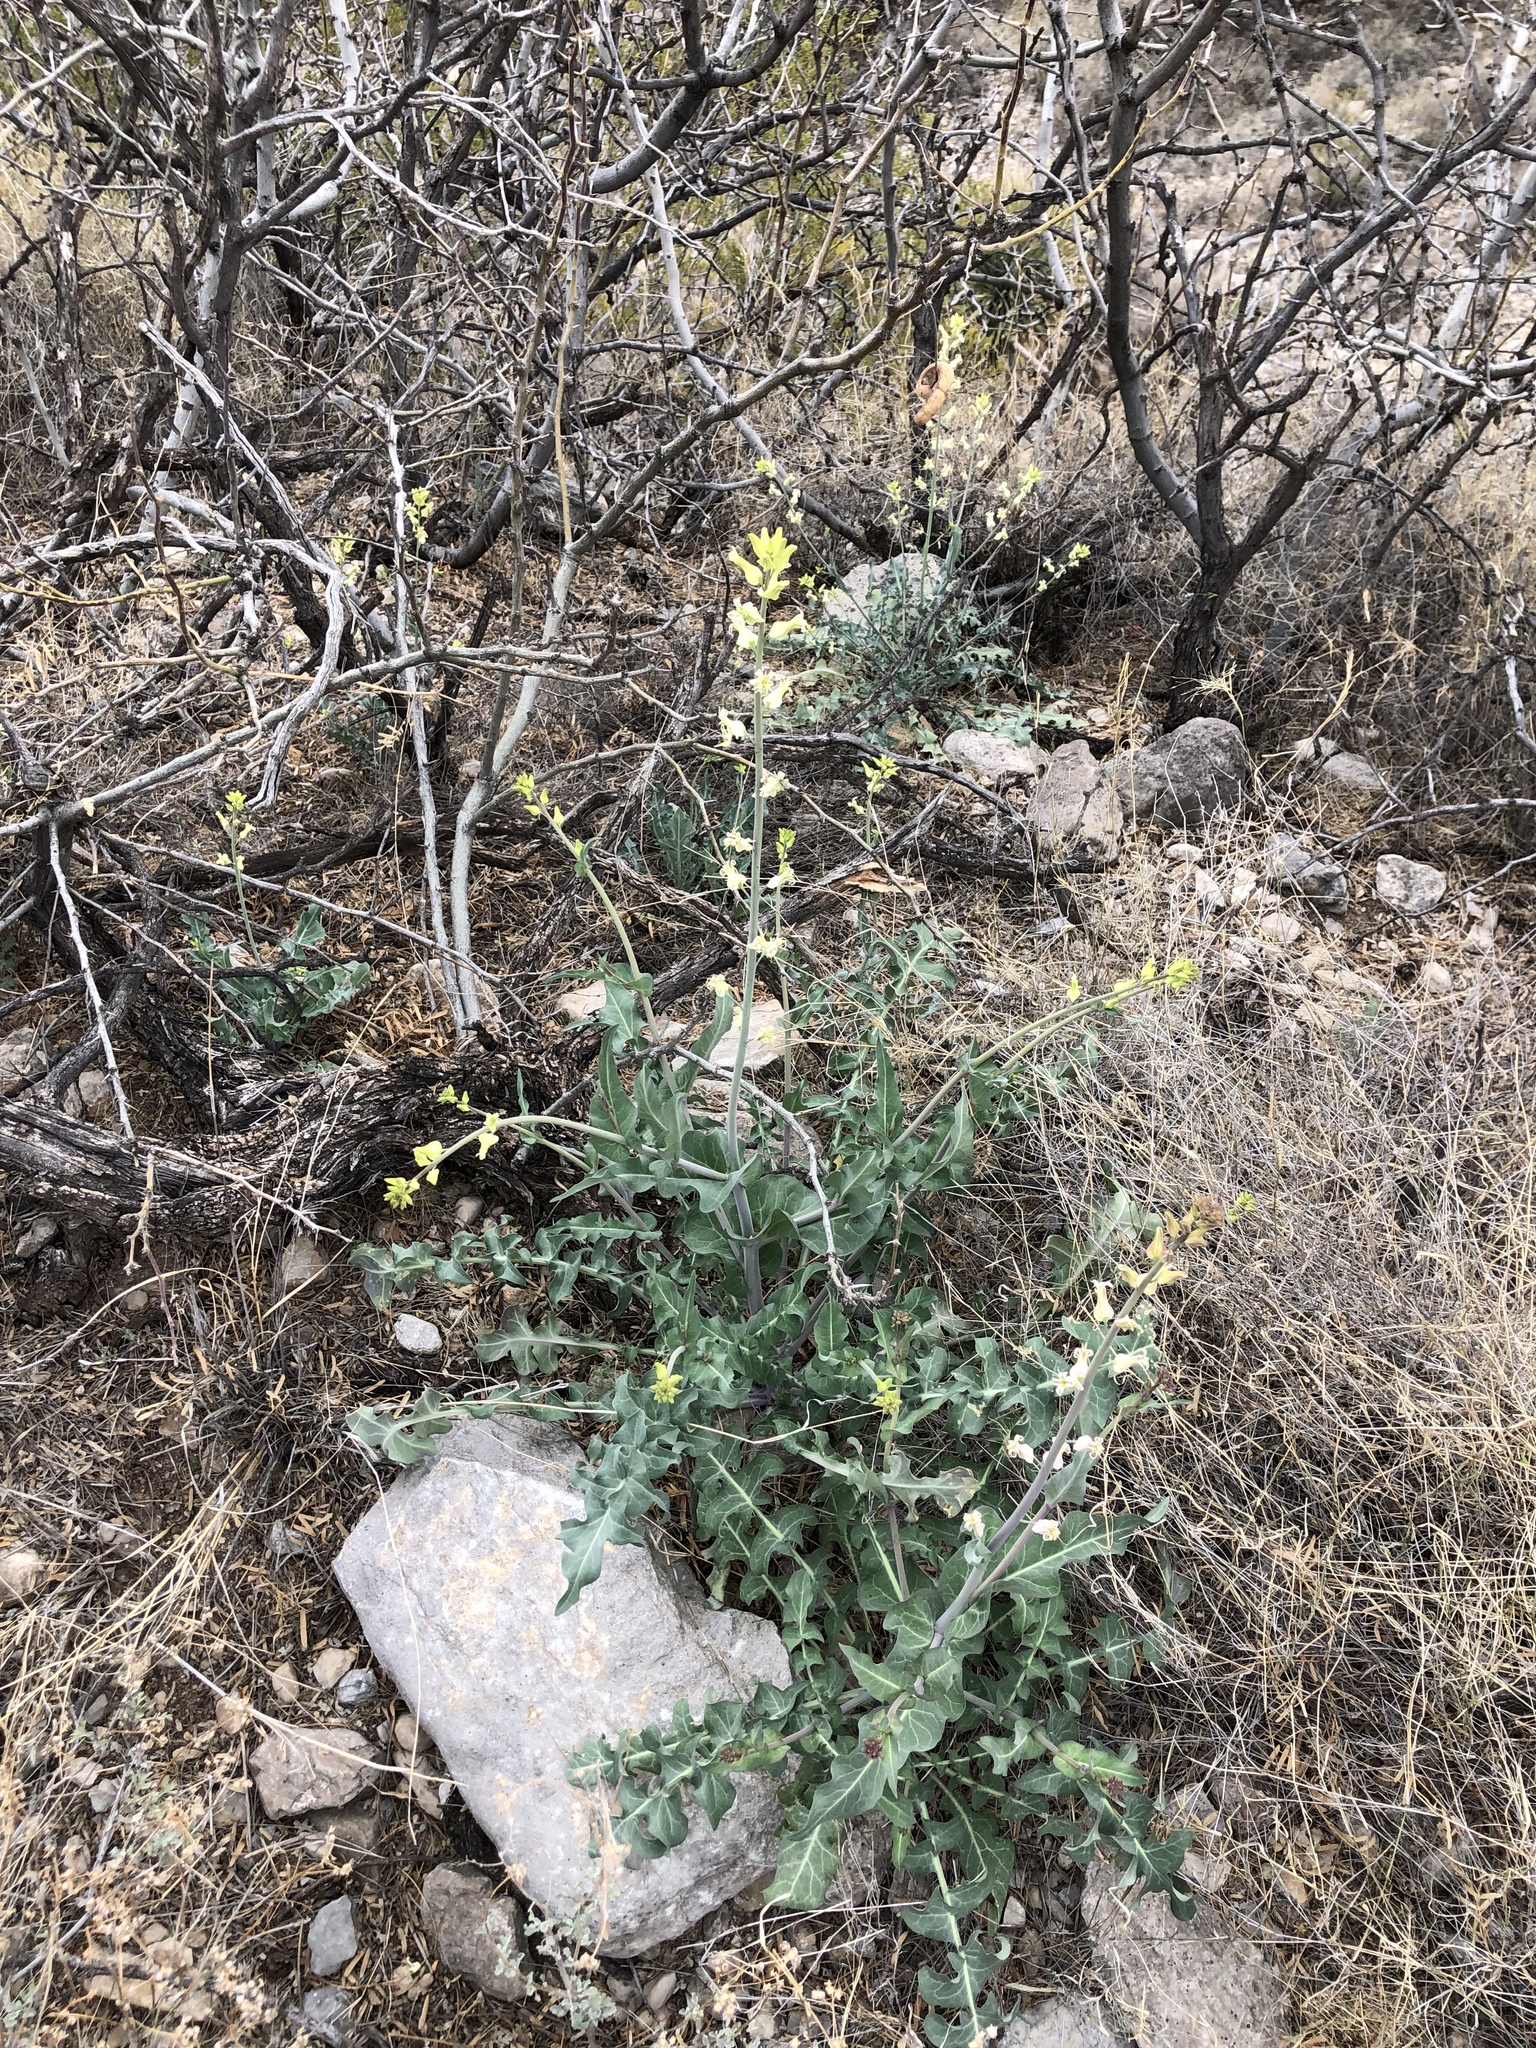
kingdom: Plantae
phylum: Tracheophyta
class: Magnoliopsida
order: Brassicales
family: Brassicaceae
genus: Streptanthus
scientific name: Streptanthus carinatus
